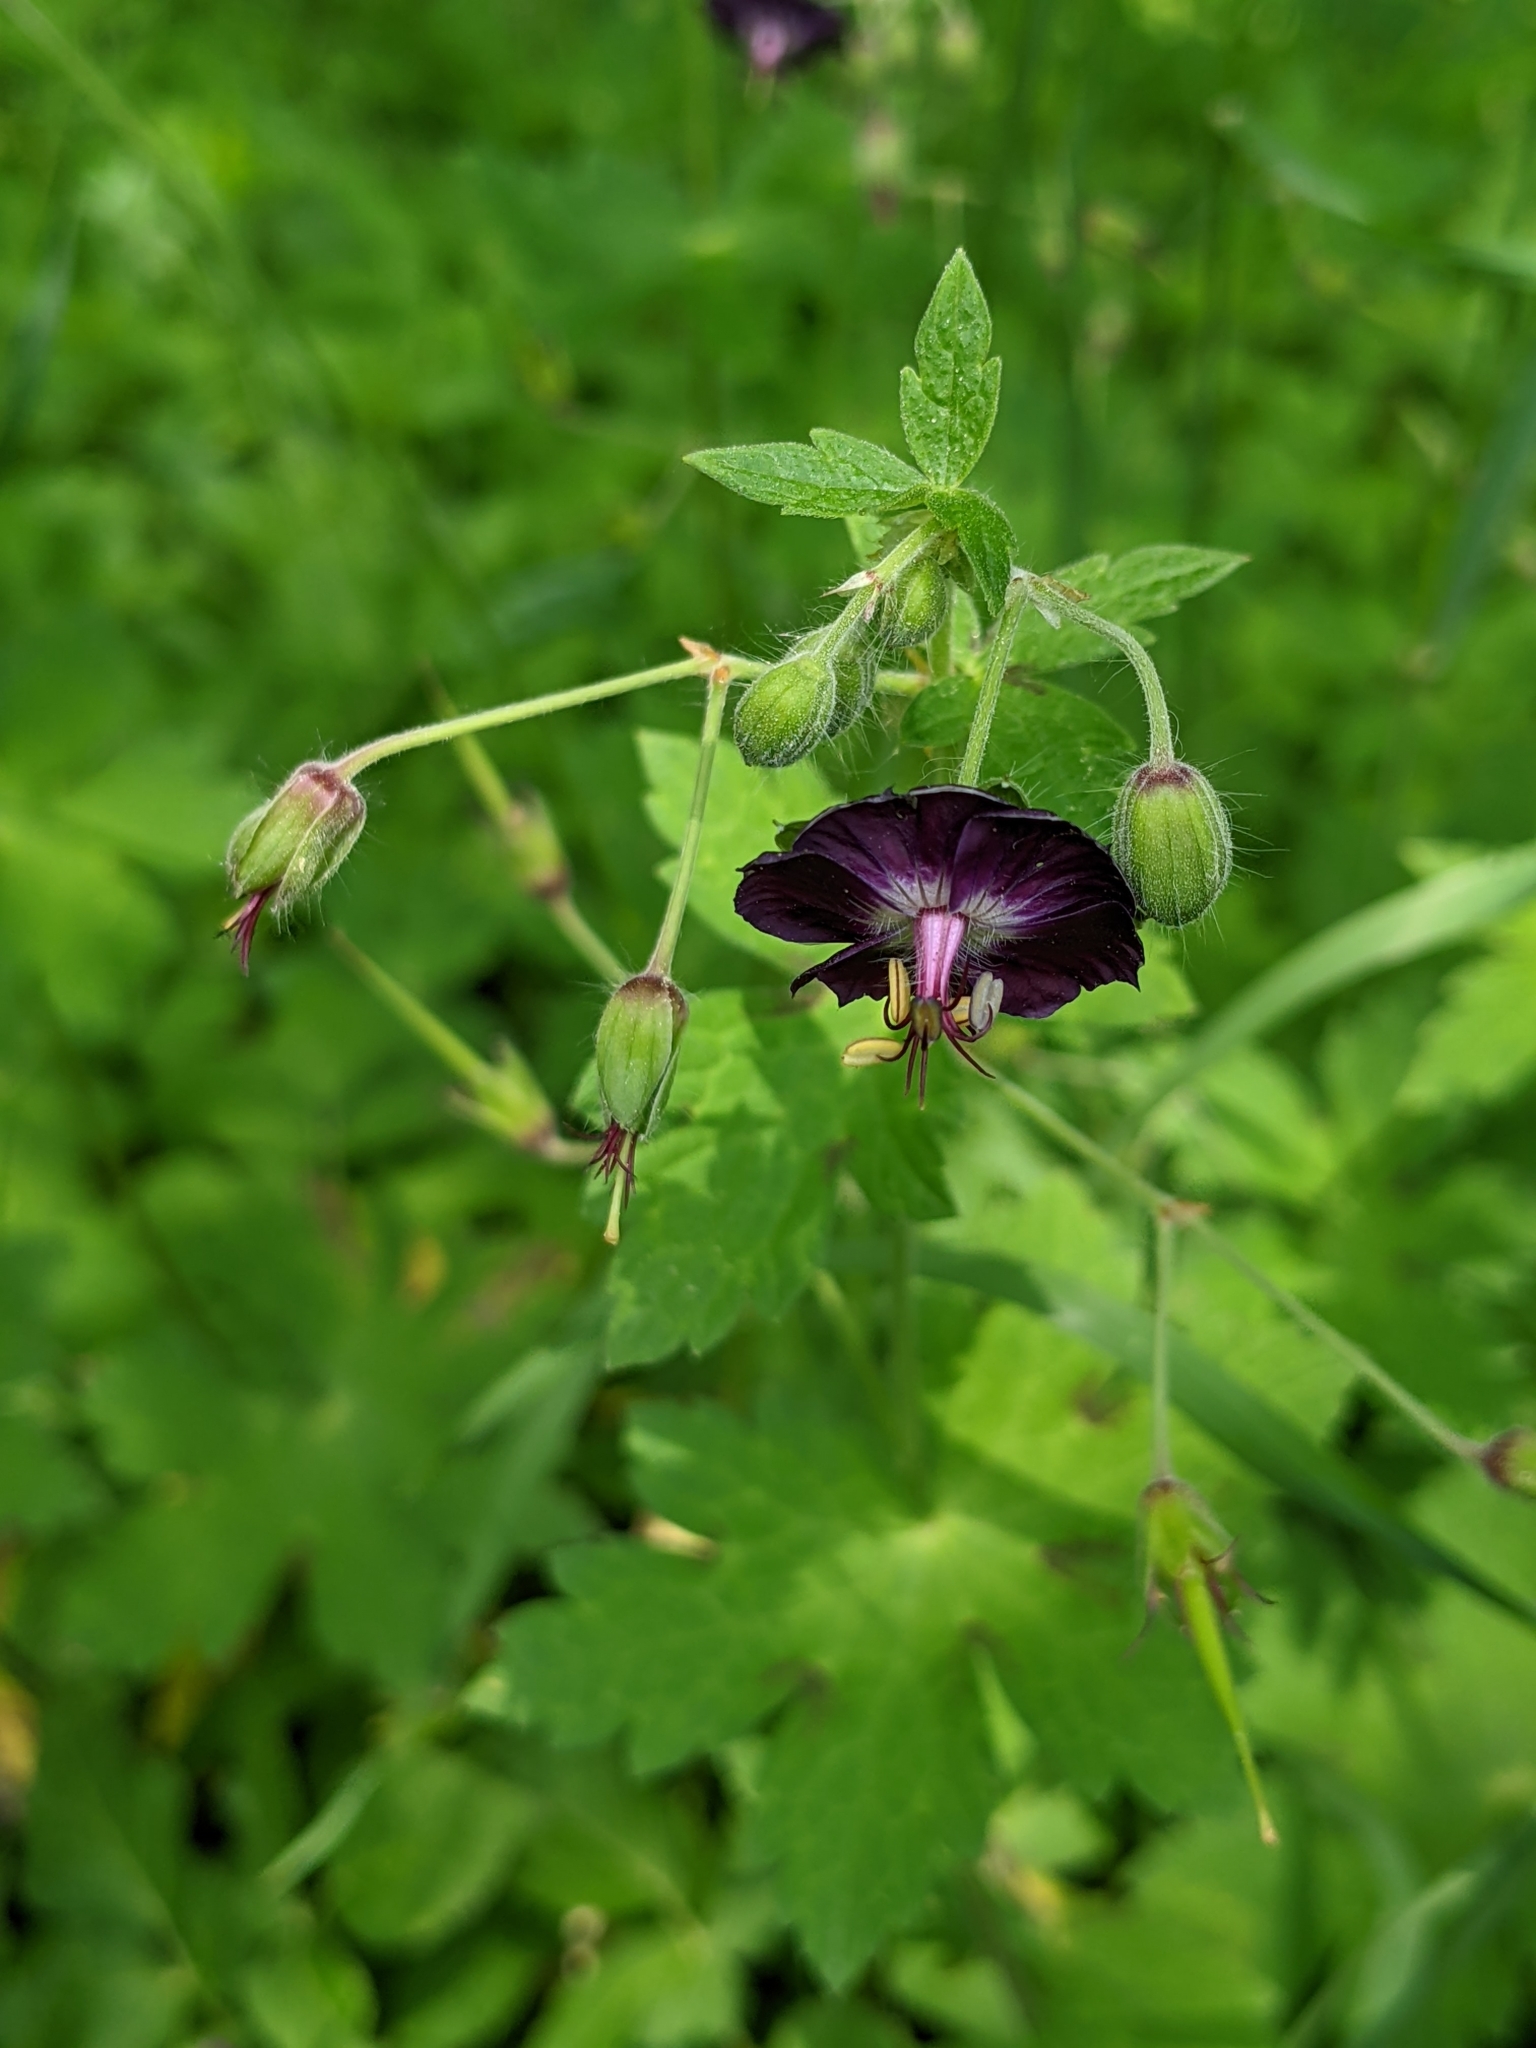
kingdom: Plantae
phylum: Tracheophyta
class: Magnoliopsida
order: Geraniales
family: Geraniaceae
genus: Geranium
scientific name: Geranium phaeum
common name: Dusky crane's-bill
